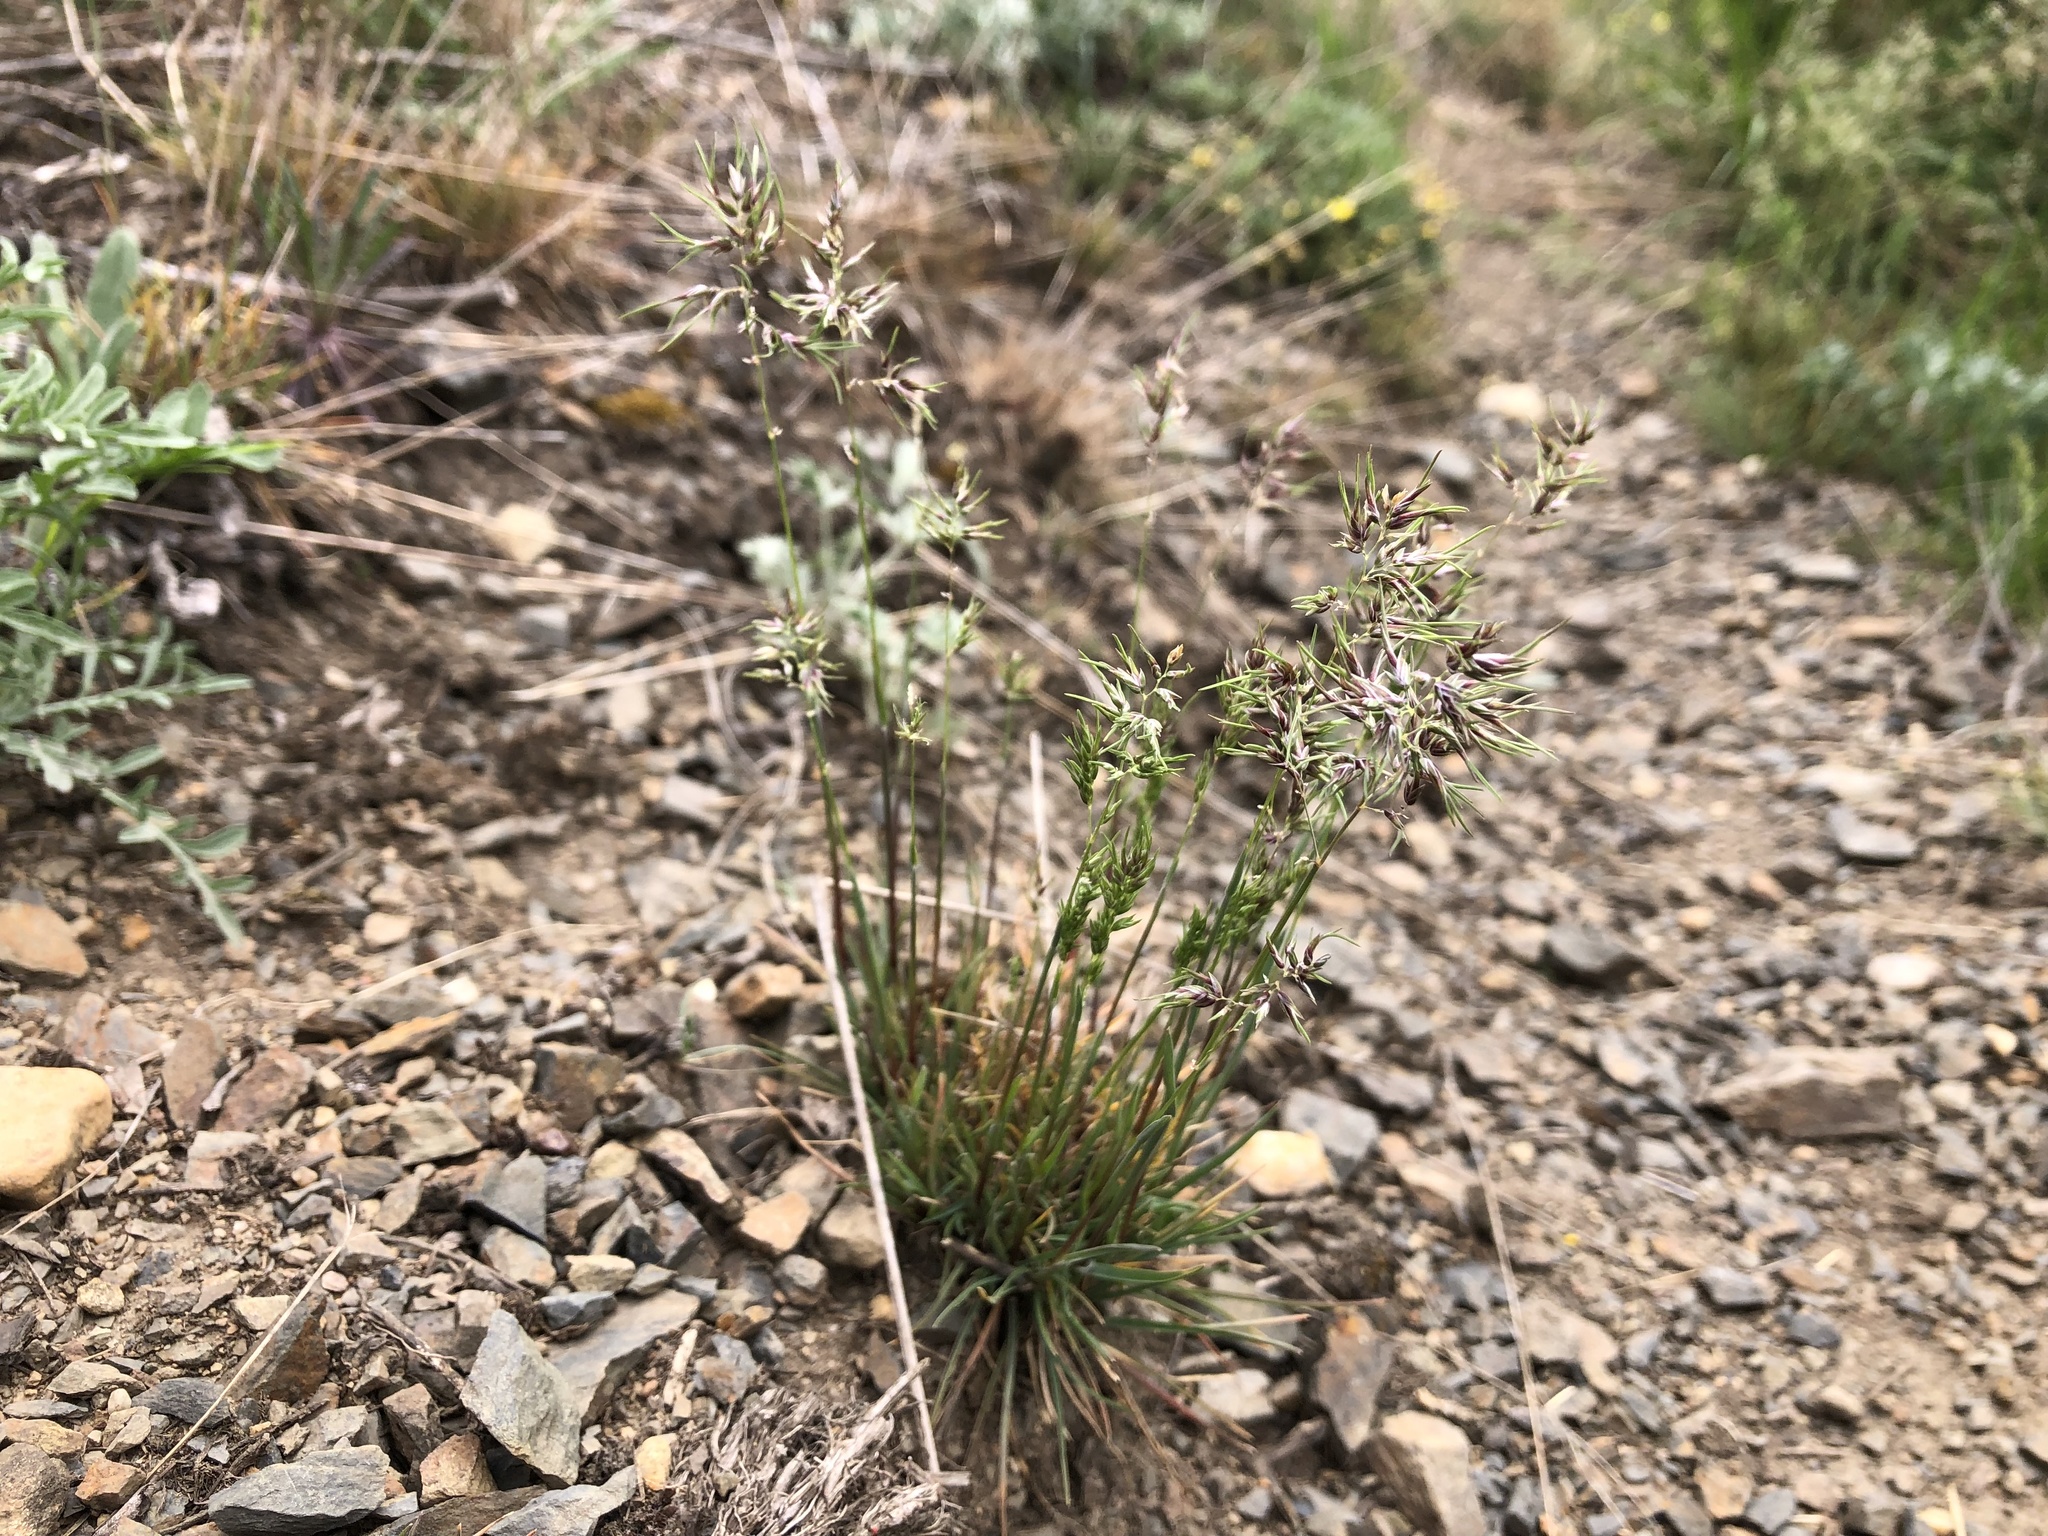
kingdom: Plantae
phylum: Tracheophyta
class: Liliopsida
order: Poales
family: Poaceae
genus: Poa
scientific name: Poa bulbosa
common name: Bulbous bluegrass
